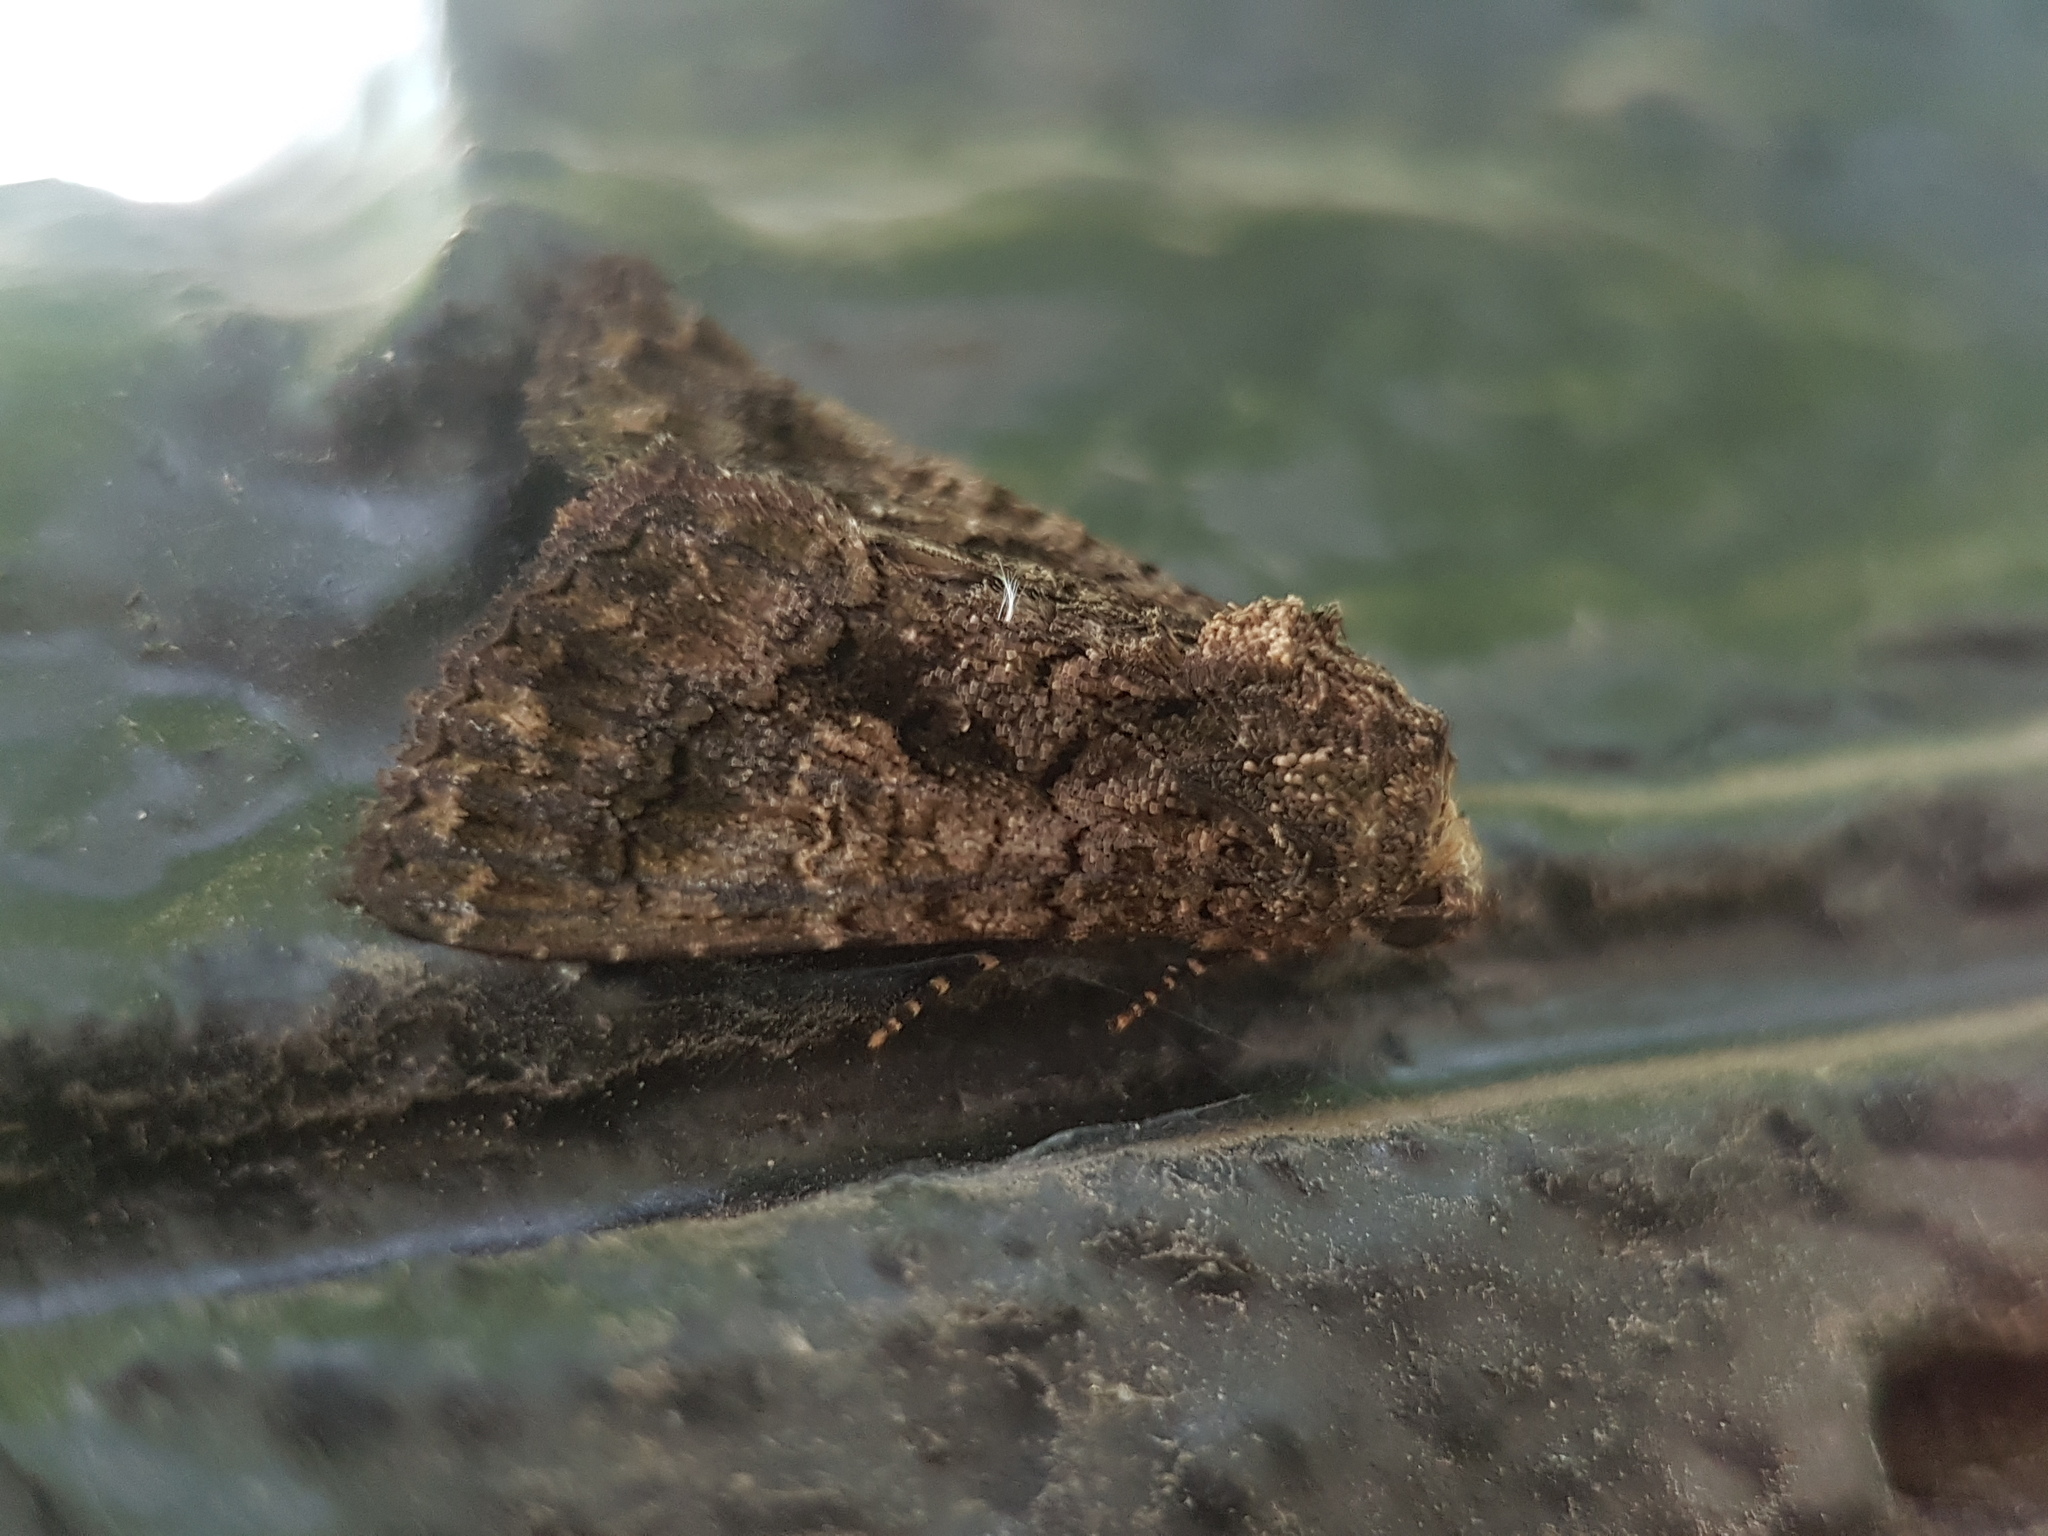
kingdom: Animalia
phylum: Arthropoda
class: Insecta
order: Lepidoptera
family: Noctuidae
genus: Aedia
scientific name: Aedia leucomelas
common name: Sorcerer
